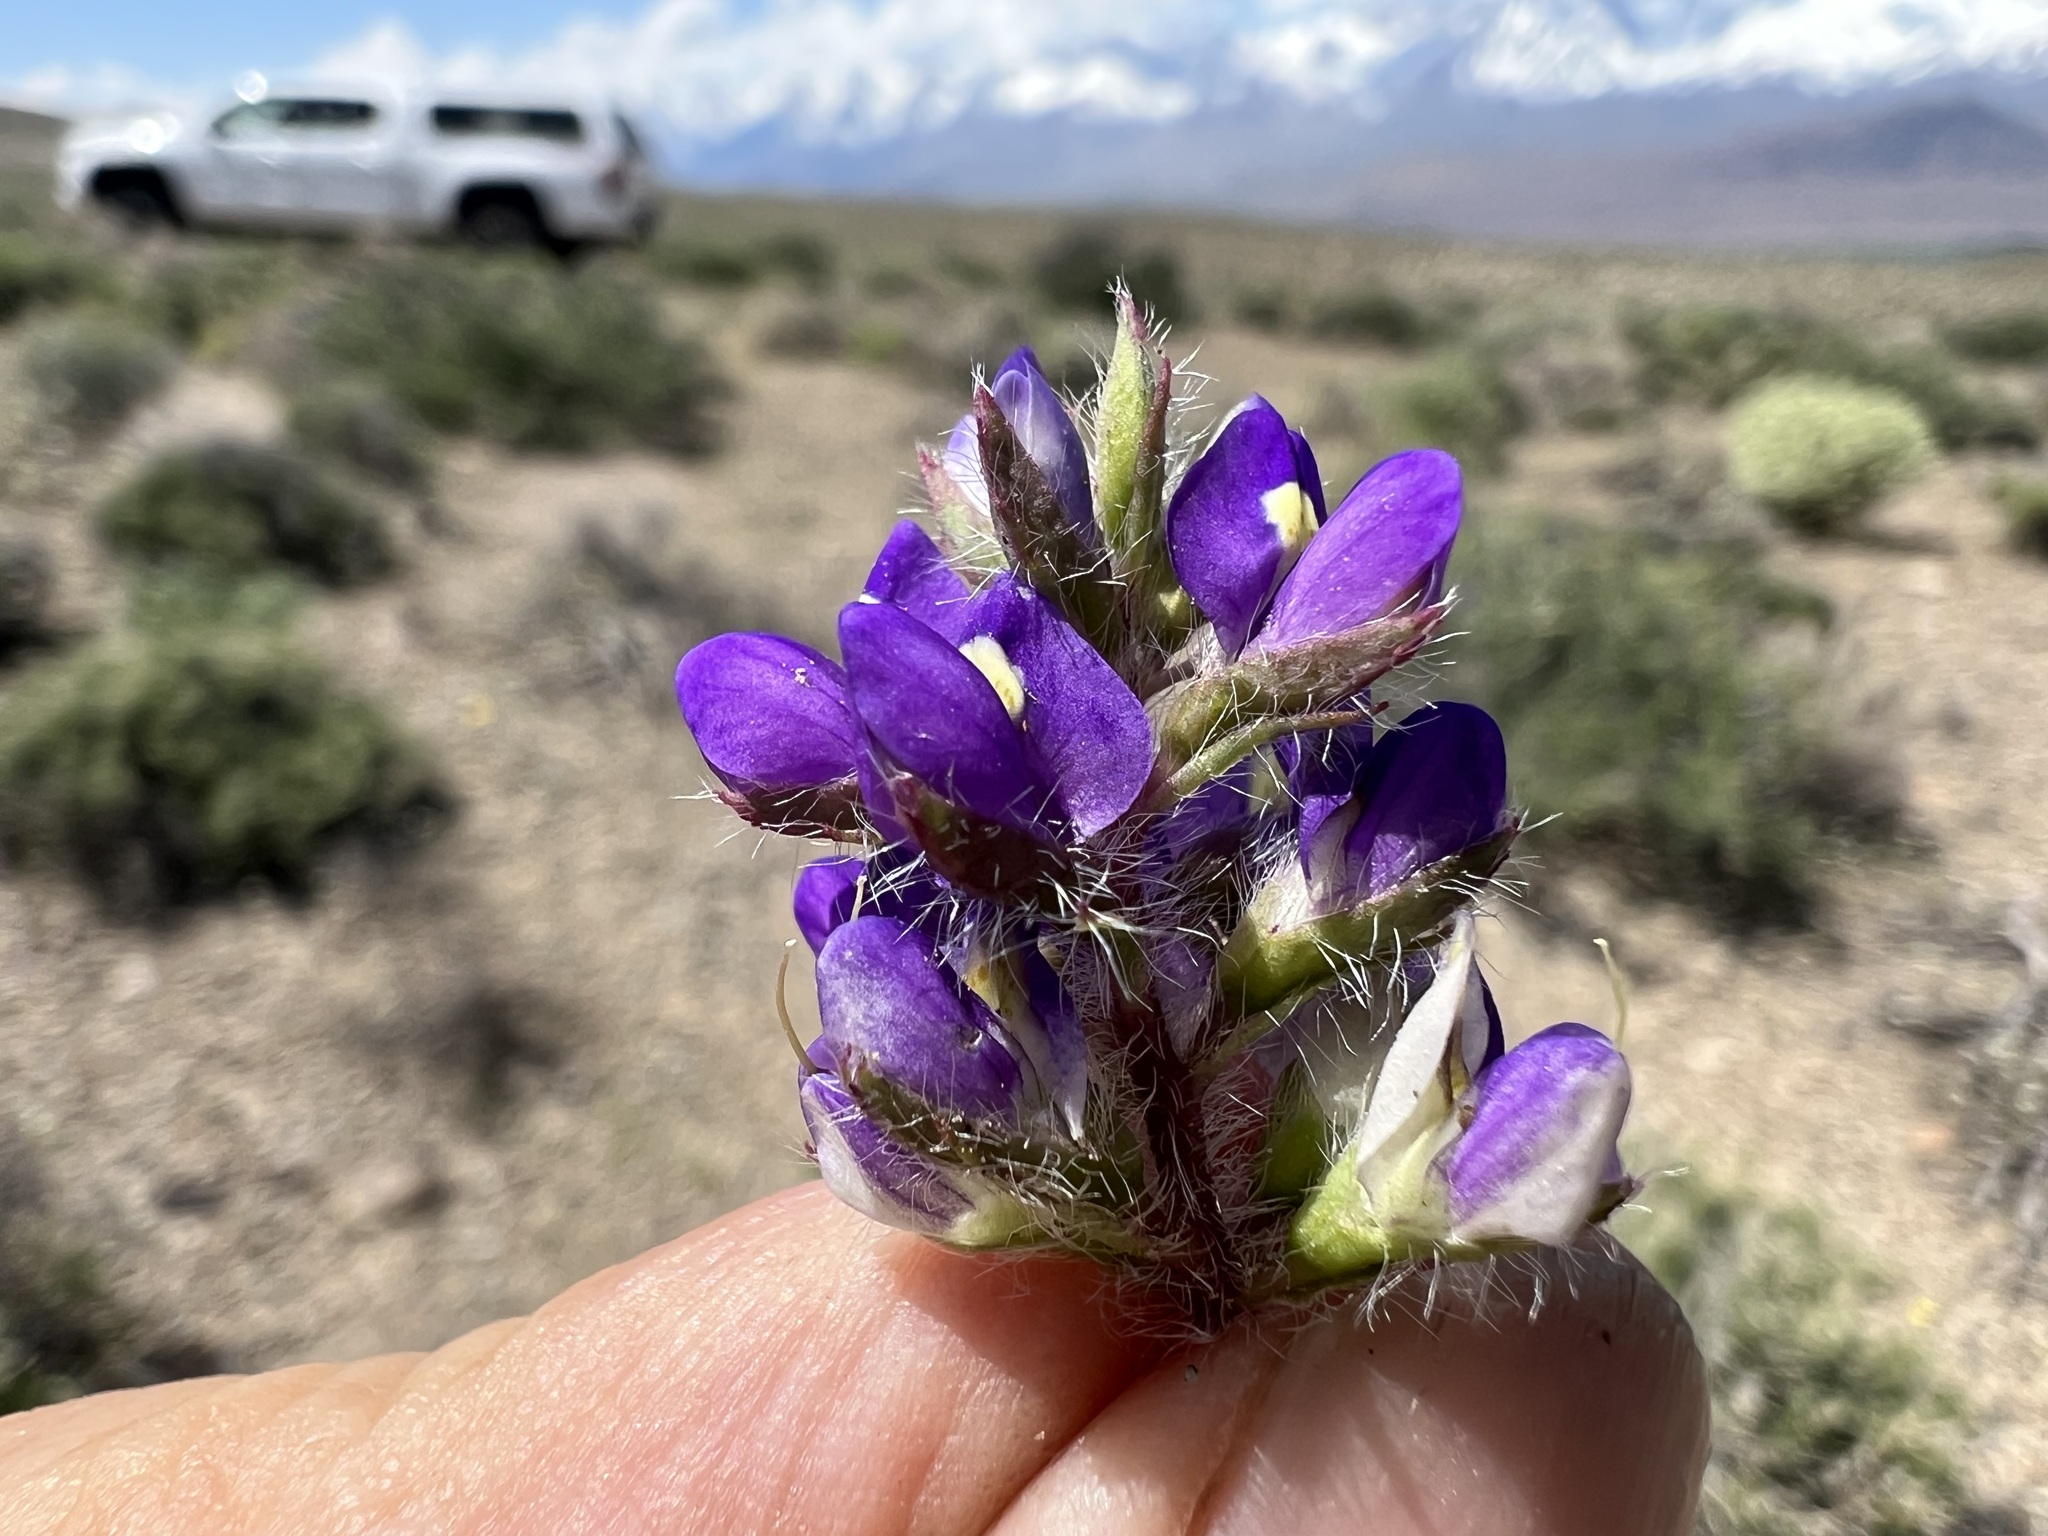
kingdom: Plantae
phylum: Tracheophyta
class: Magnoliopsida
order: Fabales
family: Fabaceae
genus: Lupinus
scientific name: Lupinus flavoculatus
